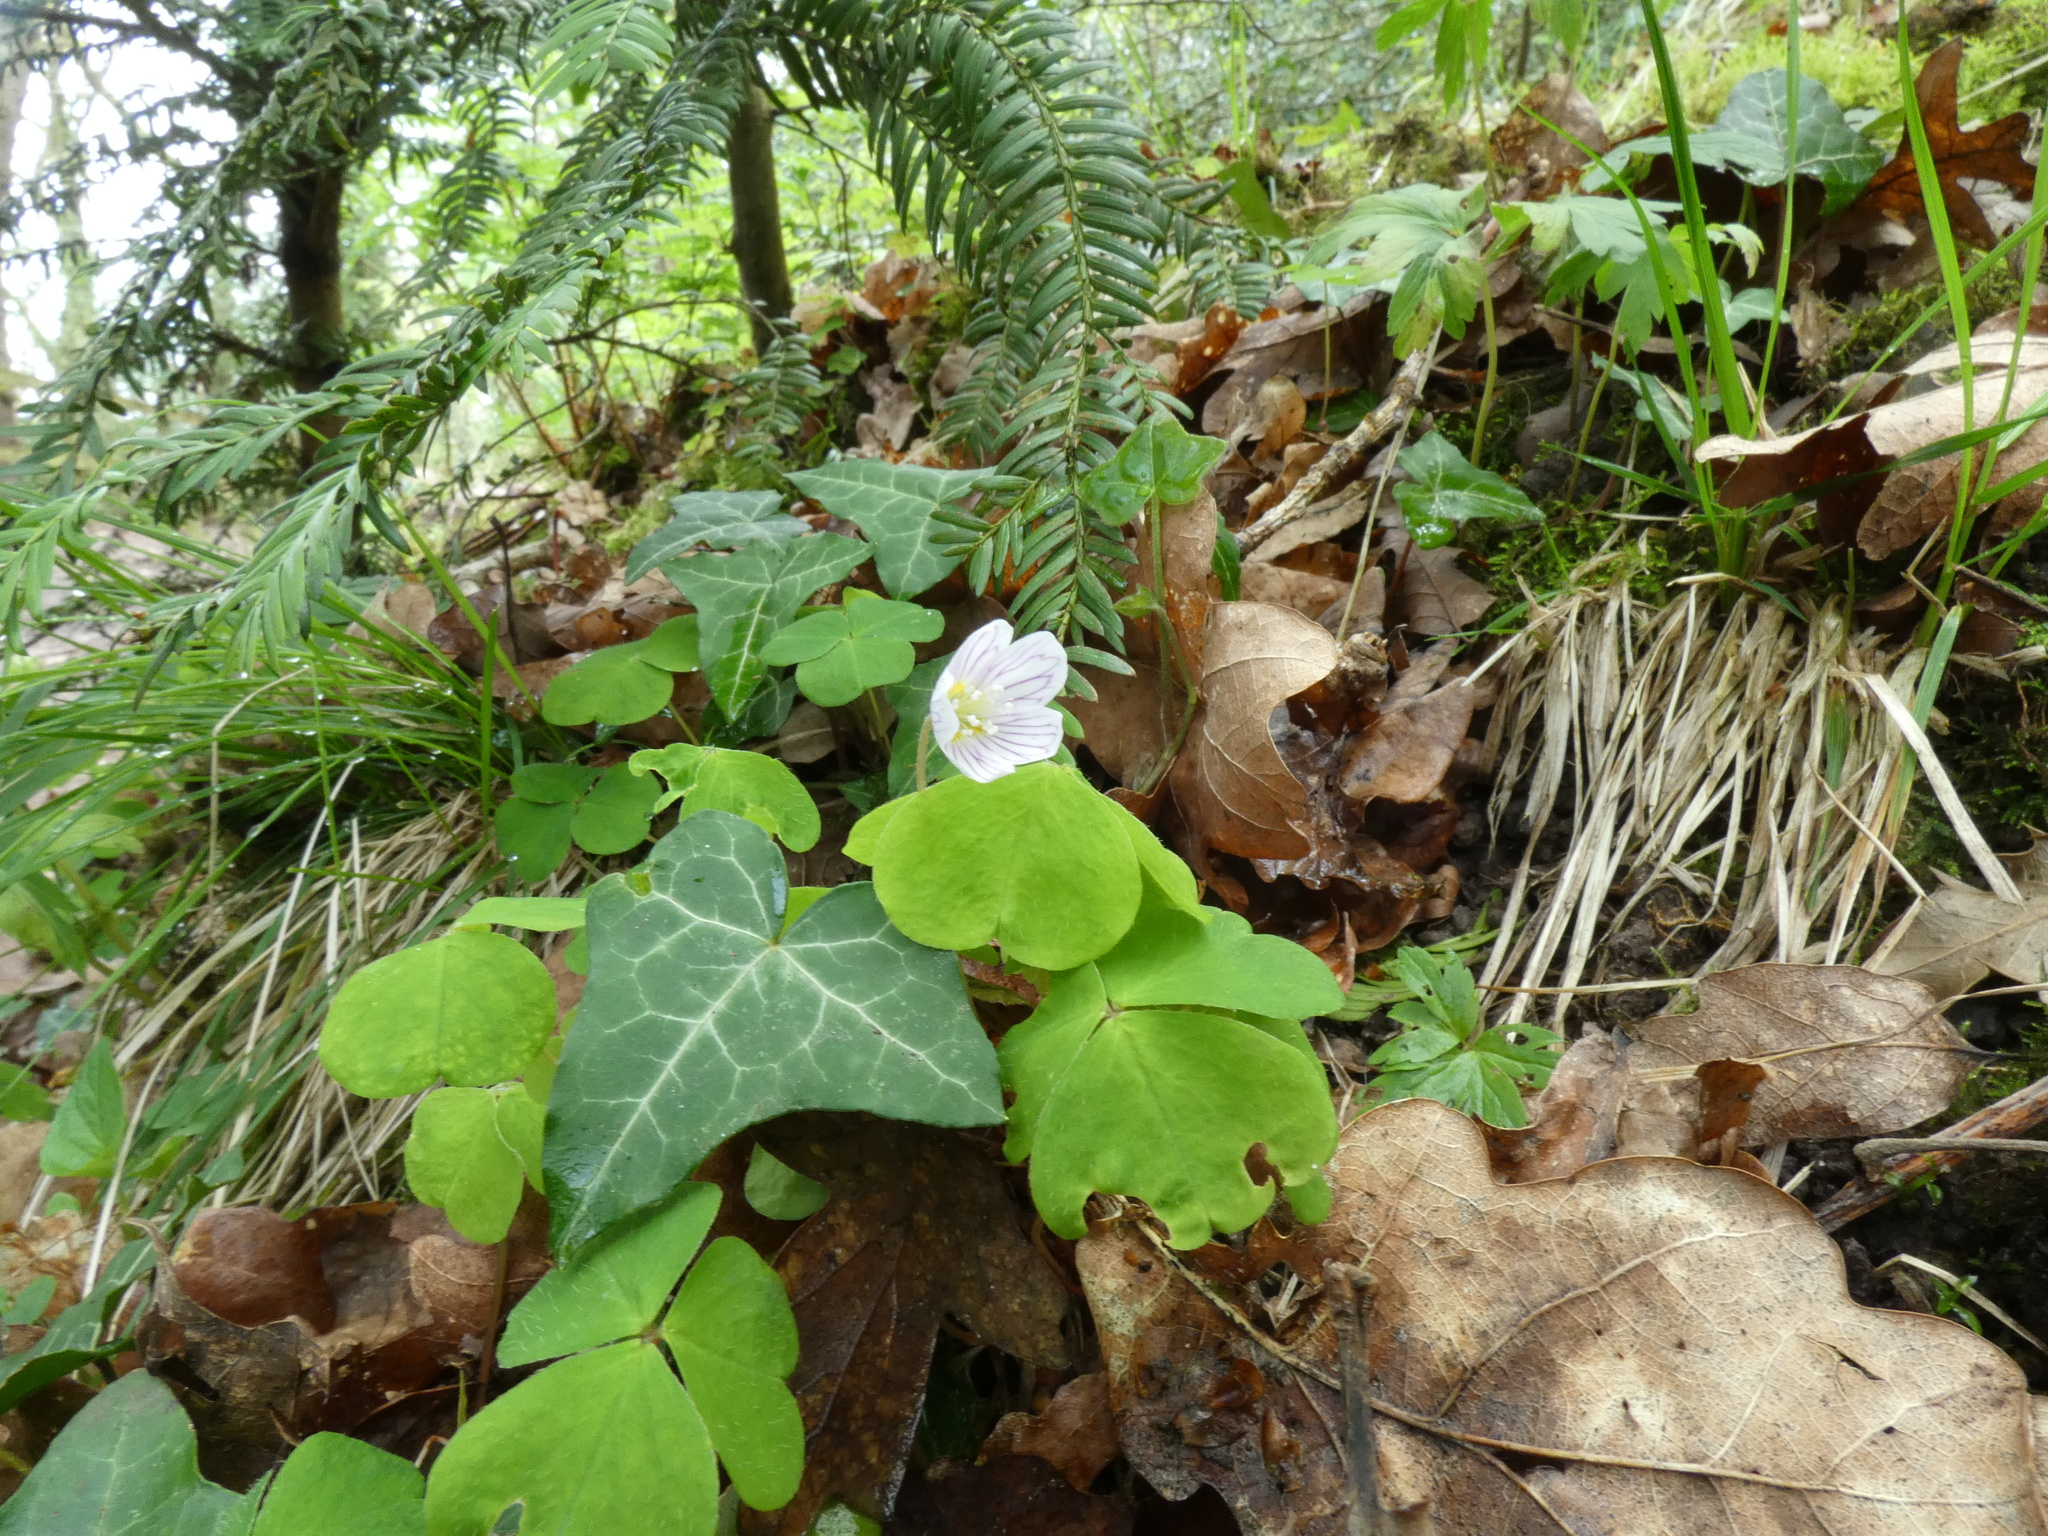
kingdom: Plantae
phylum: Tracheophyta
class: Magnoliopsida
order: Oxalidales
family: Oxalidaceae
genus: Oxalis
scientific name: Oxalis acetosella
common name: Wood-sorrel
